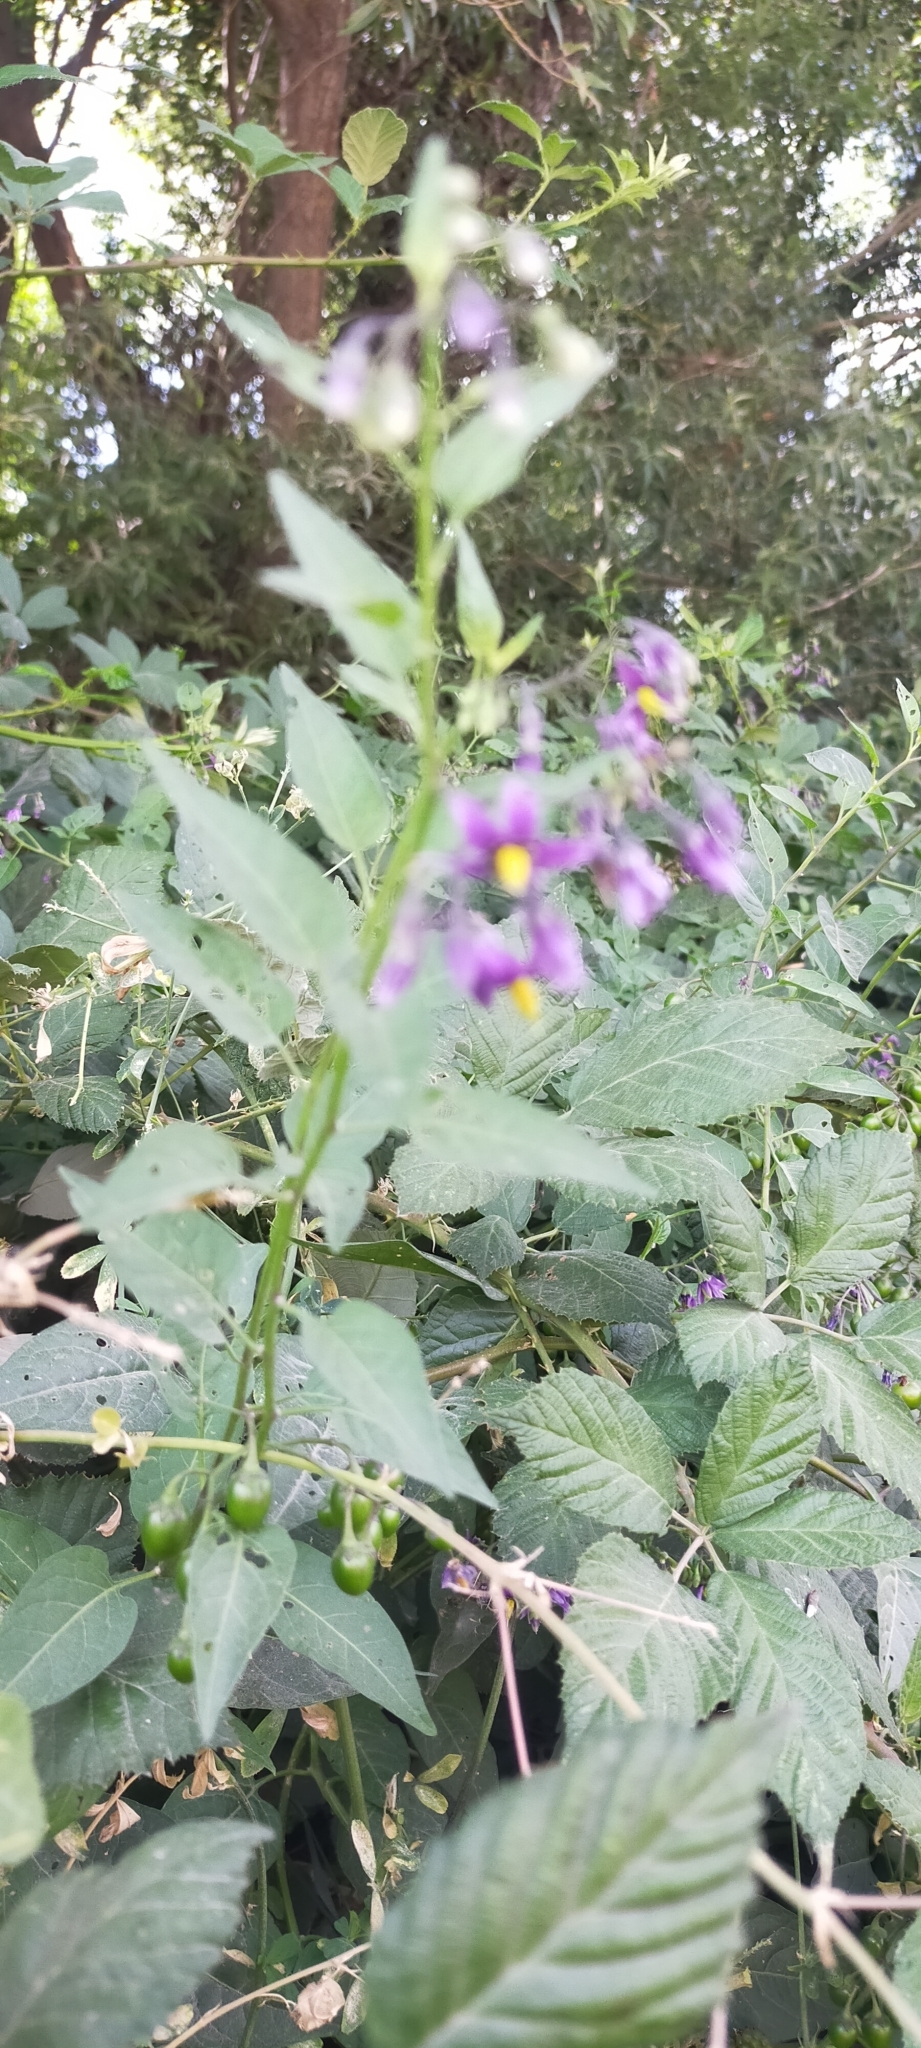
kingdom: Plantae
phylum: Tracheophyta
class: Magnoliopsida
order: Solanales
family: Solanaceae
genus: Solanum
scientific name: Solanum dulcamara
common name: Climbing nightshade
